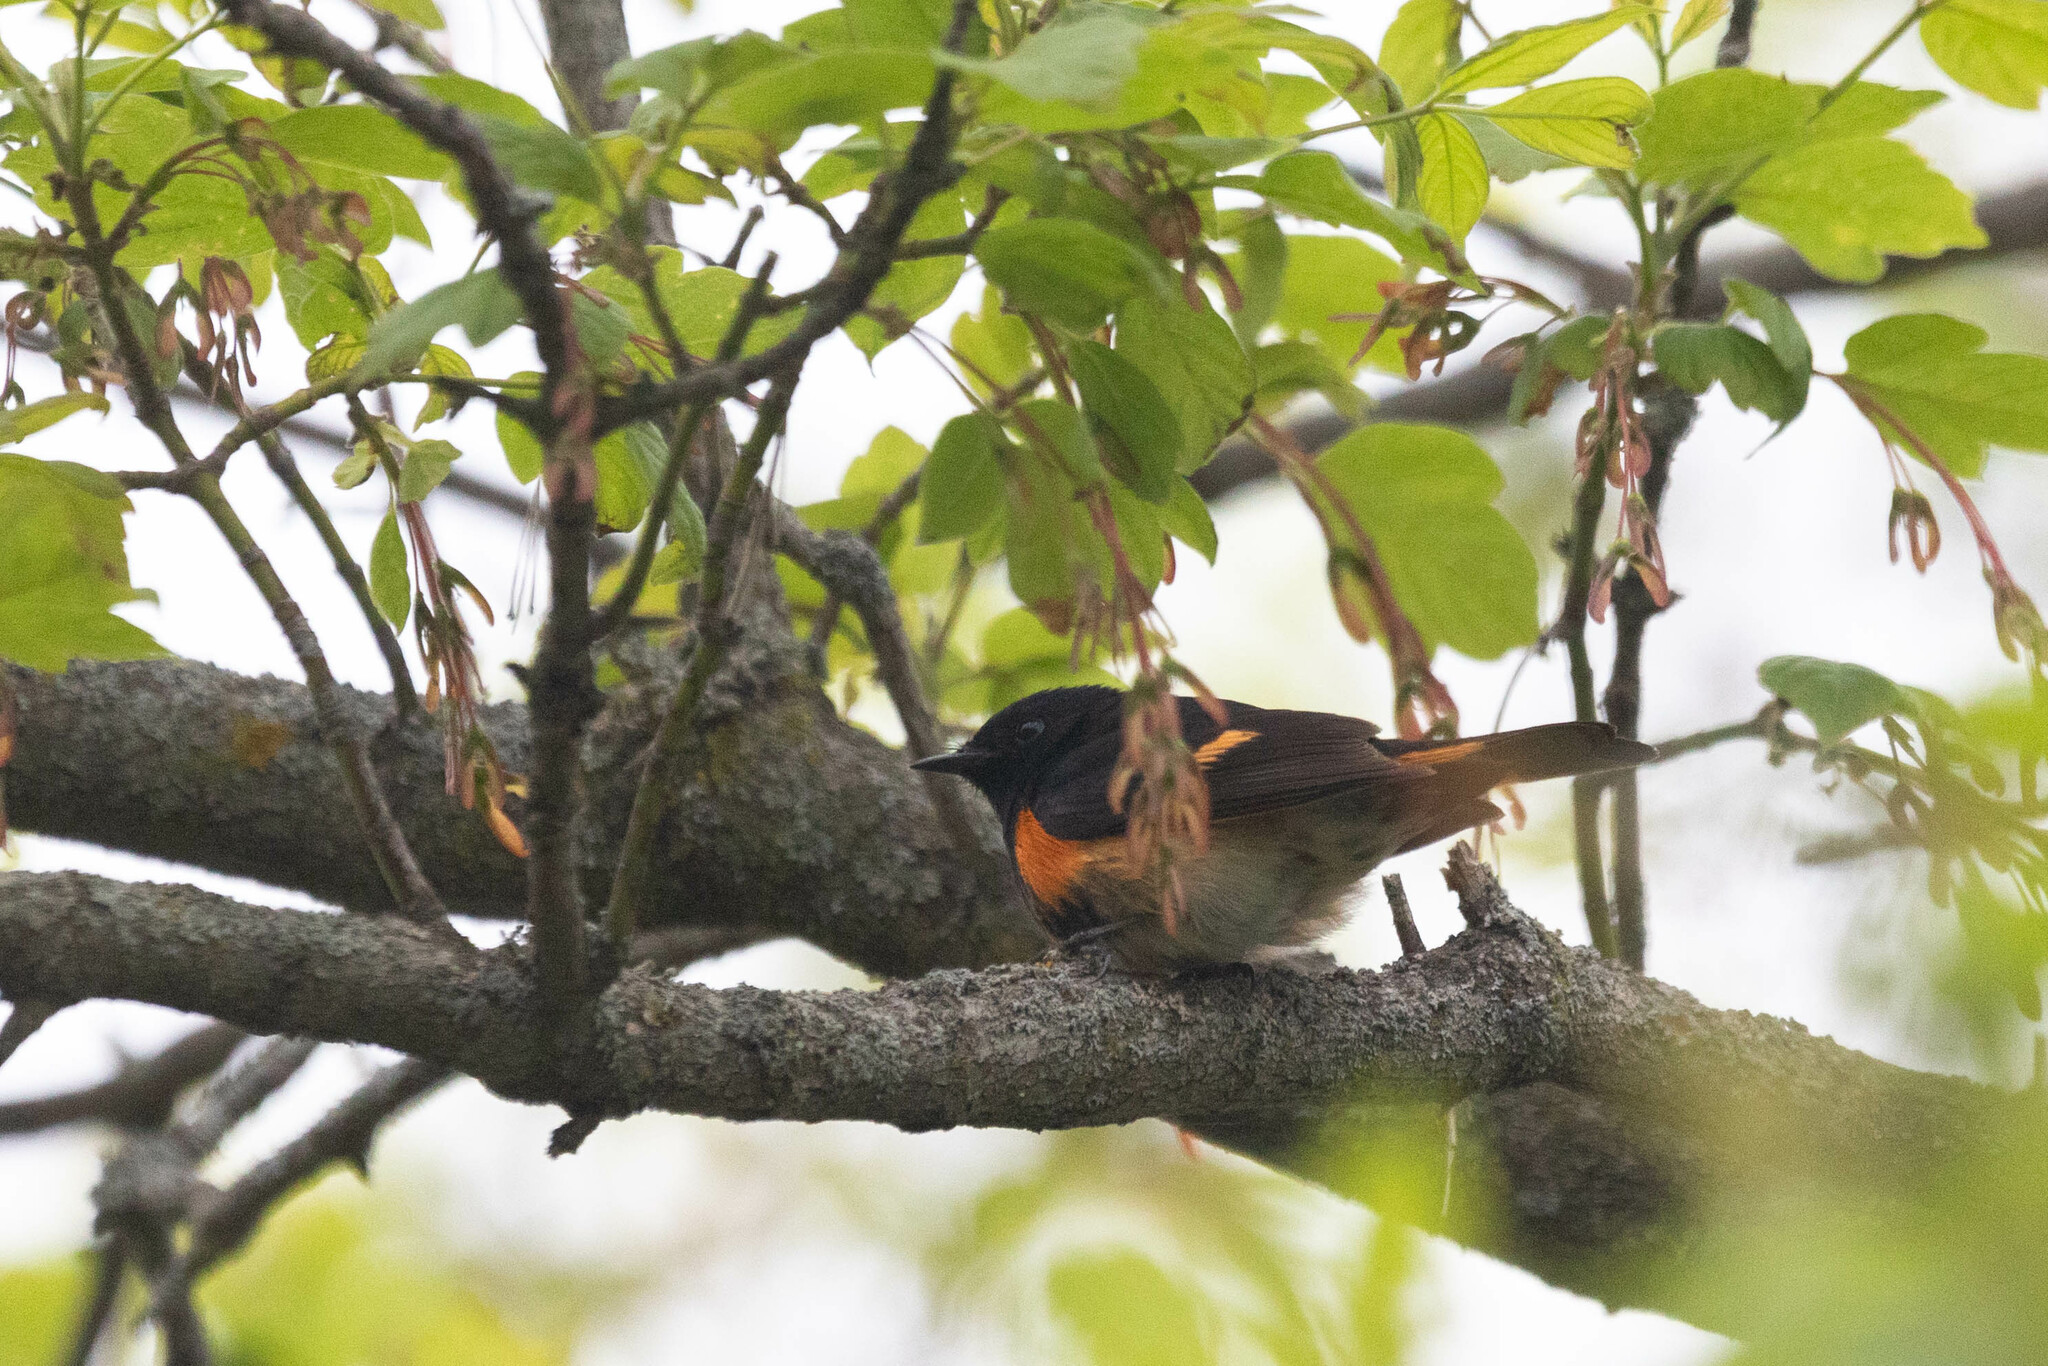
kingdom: Animalia
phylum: Chordata
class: Aves
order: Passeriformes
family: Parulidae
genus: Setophaga
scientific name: Setophaga ruticilla
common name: American redstart
